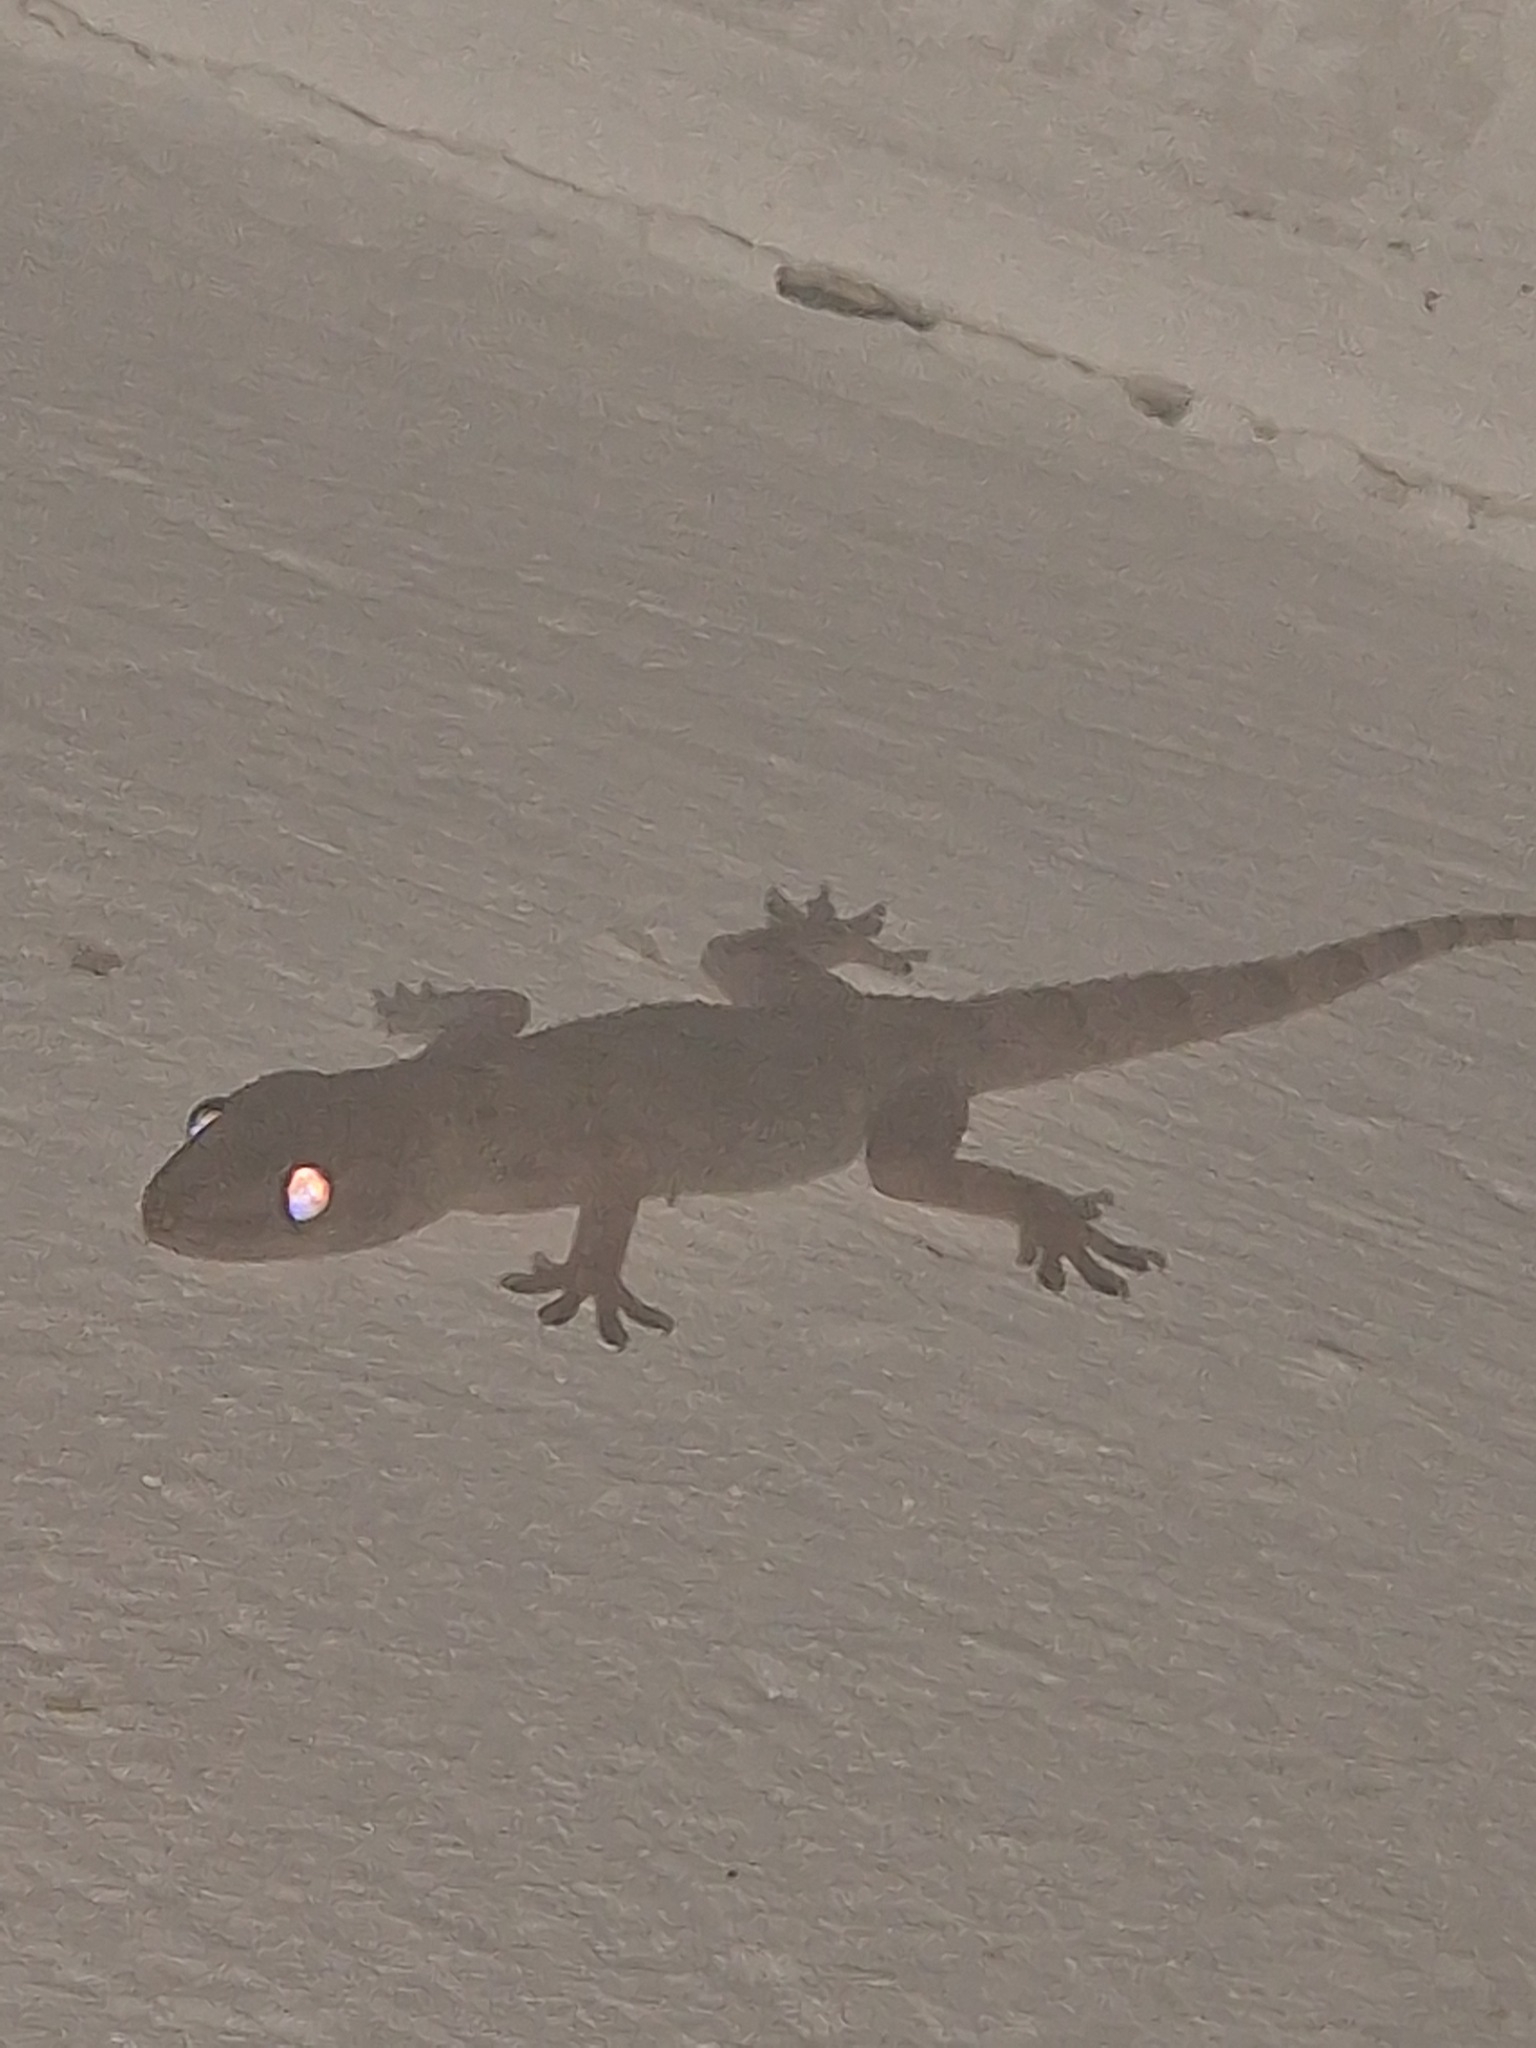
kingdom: Animalia
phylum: Chordata
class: Squamata
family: Gekkonidae
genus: Hemidactylus
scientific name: Hemidactylus mabouia
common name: House gecko
